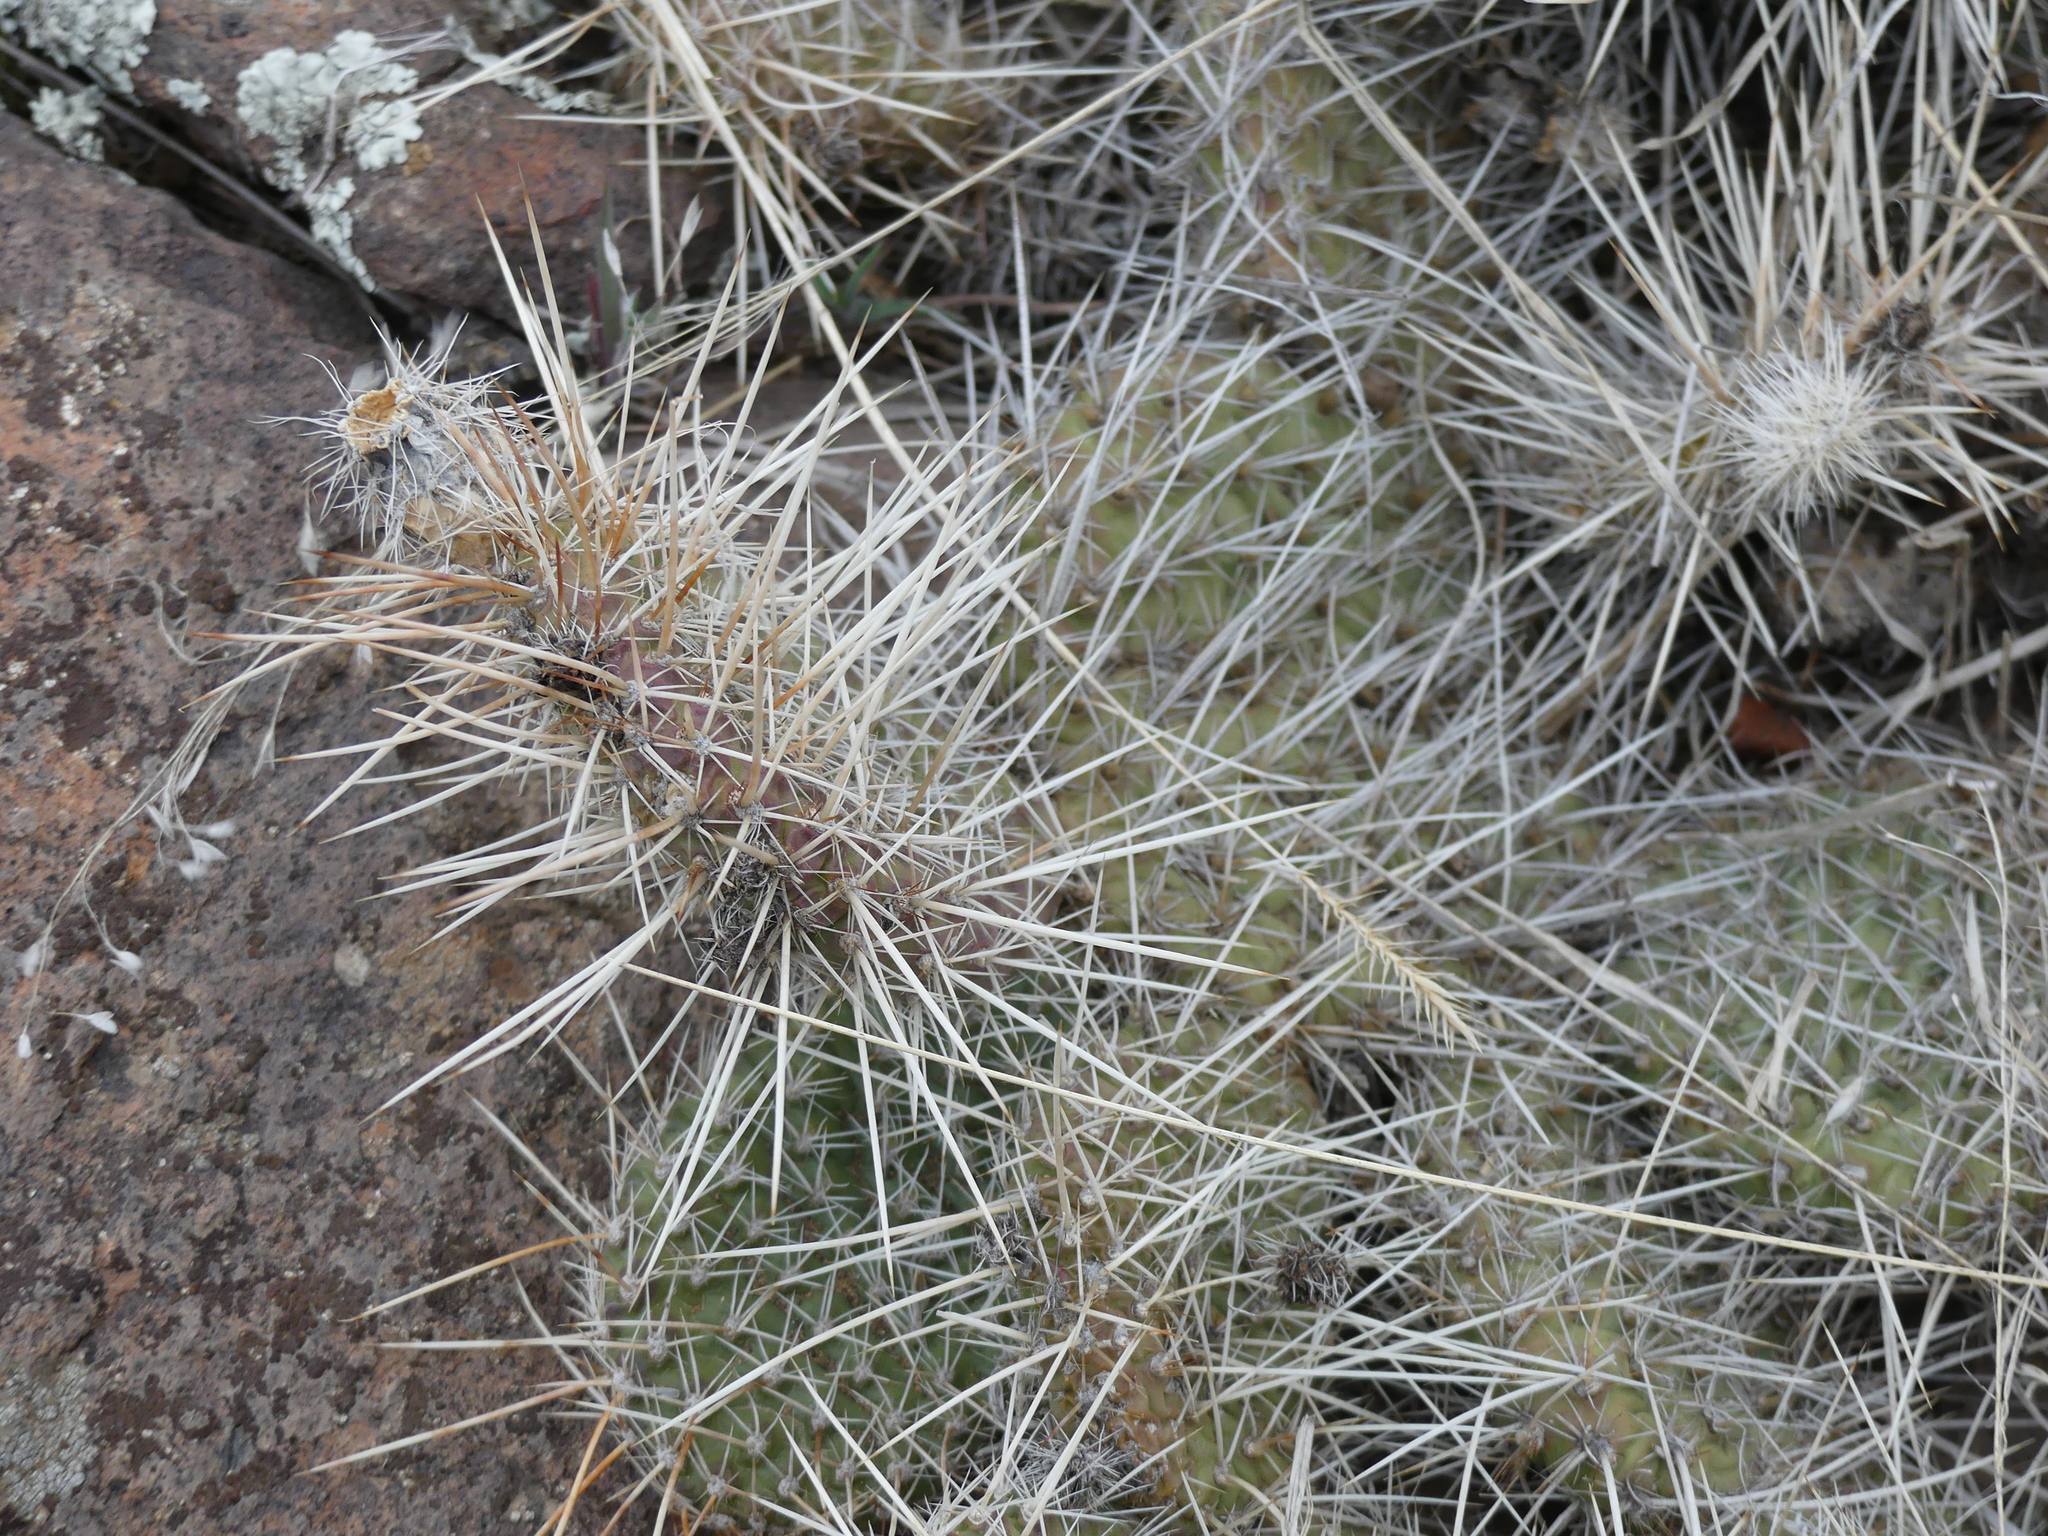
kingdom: Plantae
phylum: Tracheophyta
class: Magnoliopsida
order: Caryophyllales
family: Cactaceae
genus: Opuntia
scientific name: Opuntia polyacantha
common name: Plains prickly-pear
